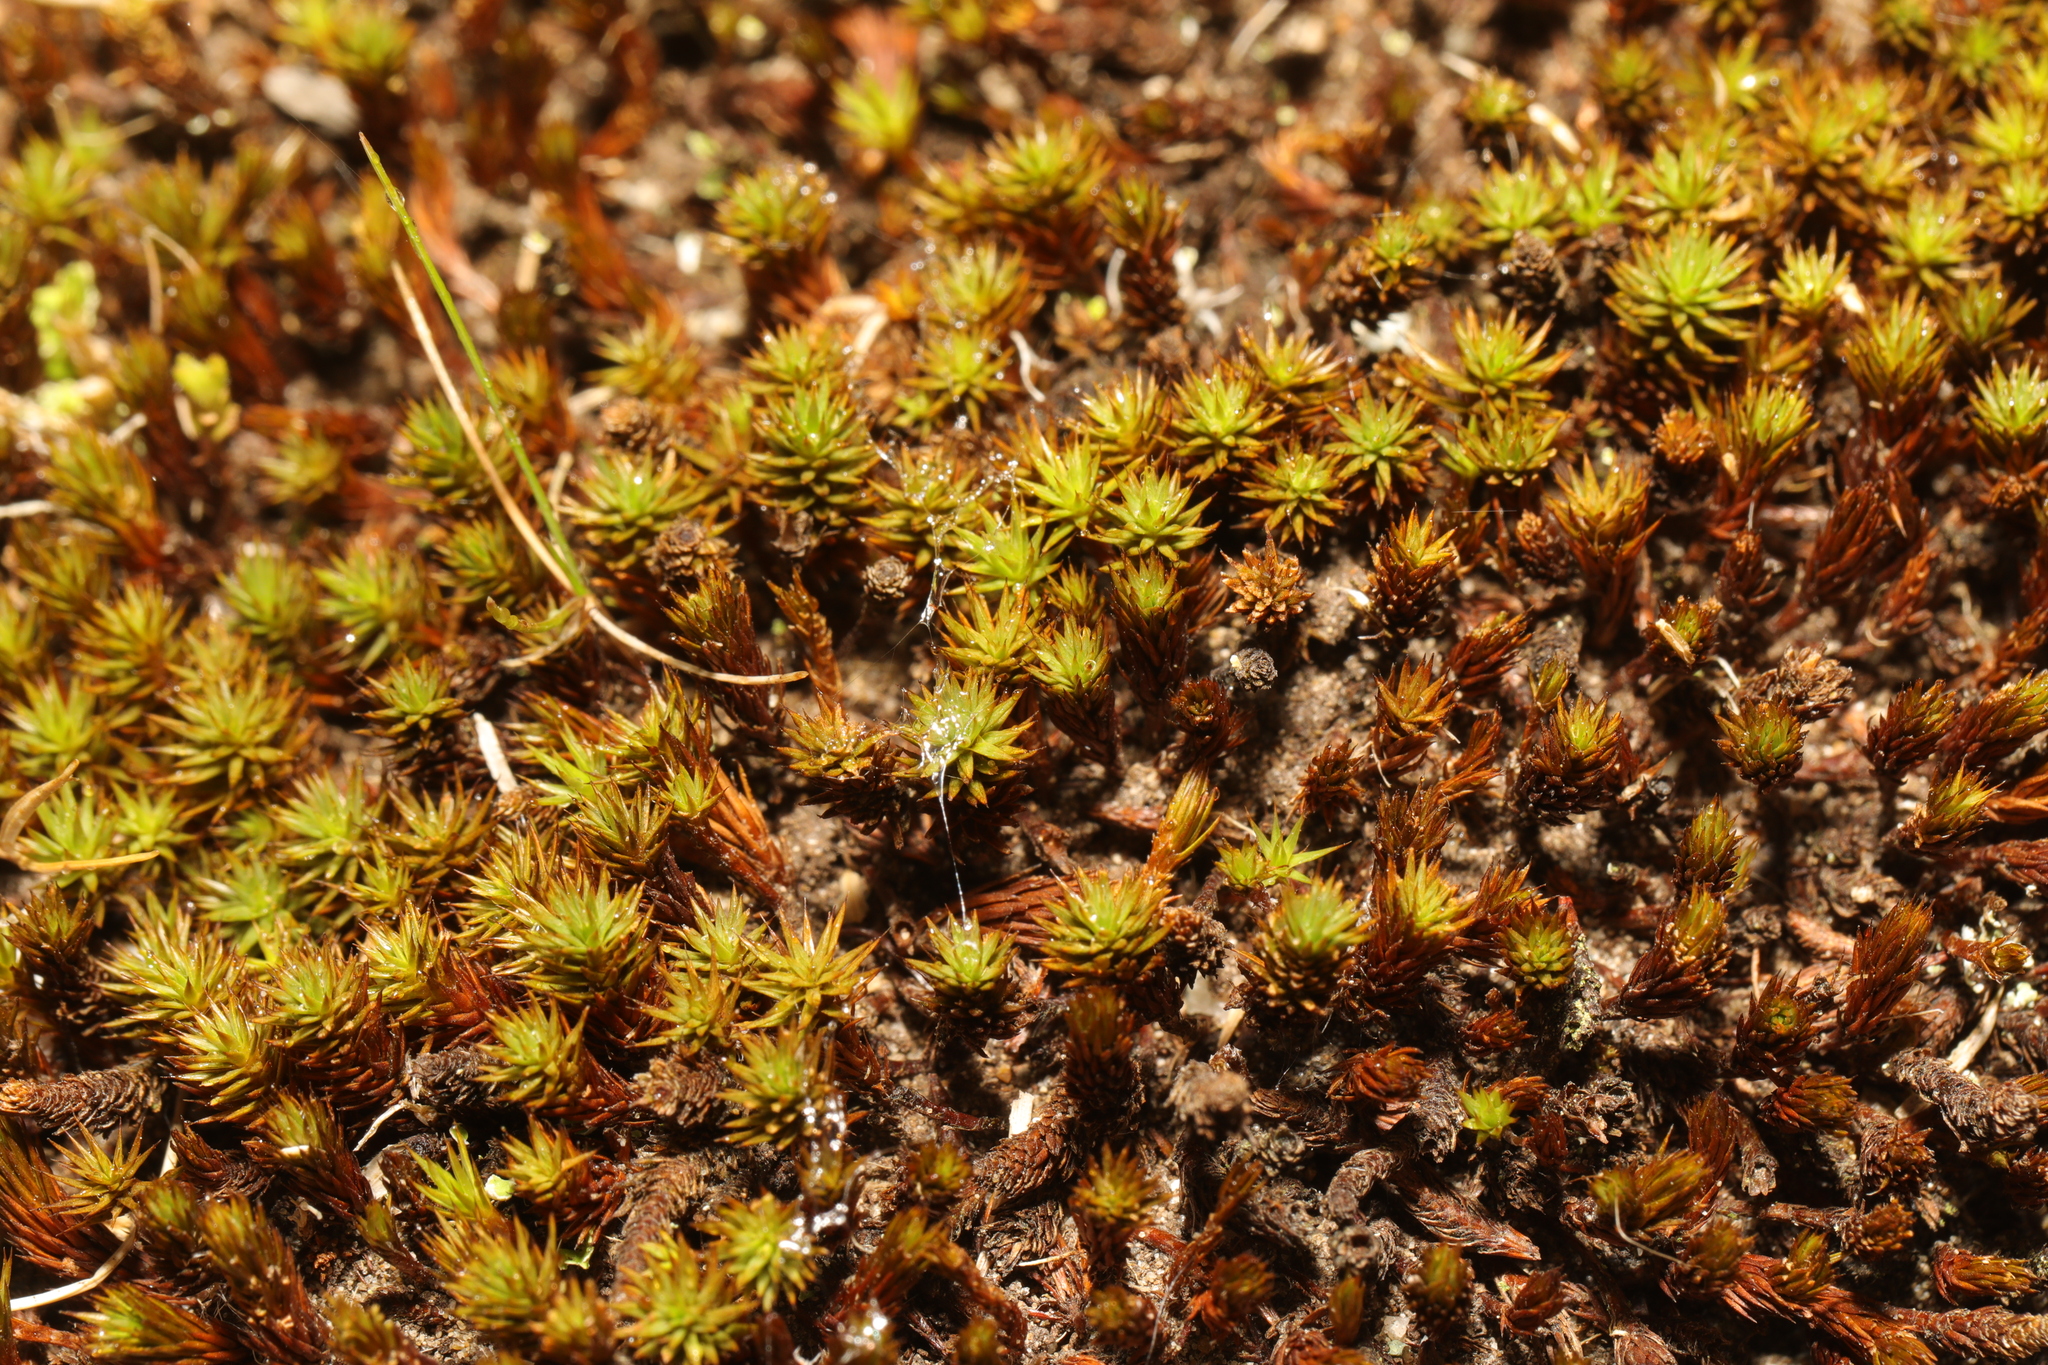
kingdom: Plantae
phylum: Bryophyta
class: Polytrichopsida
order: Polytrichales
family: Polytrichaceae
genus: Polytrichum
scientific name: Polytrichum piliferum
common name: Bristly haircap
